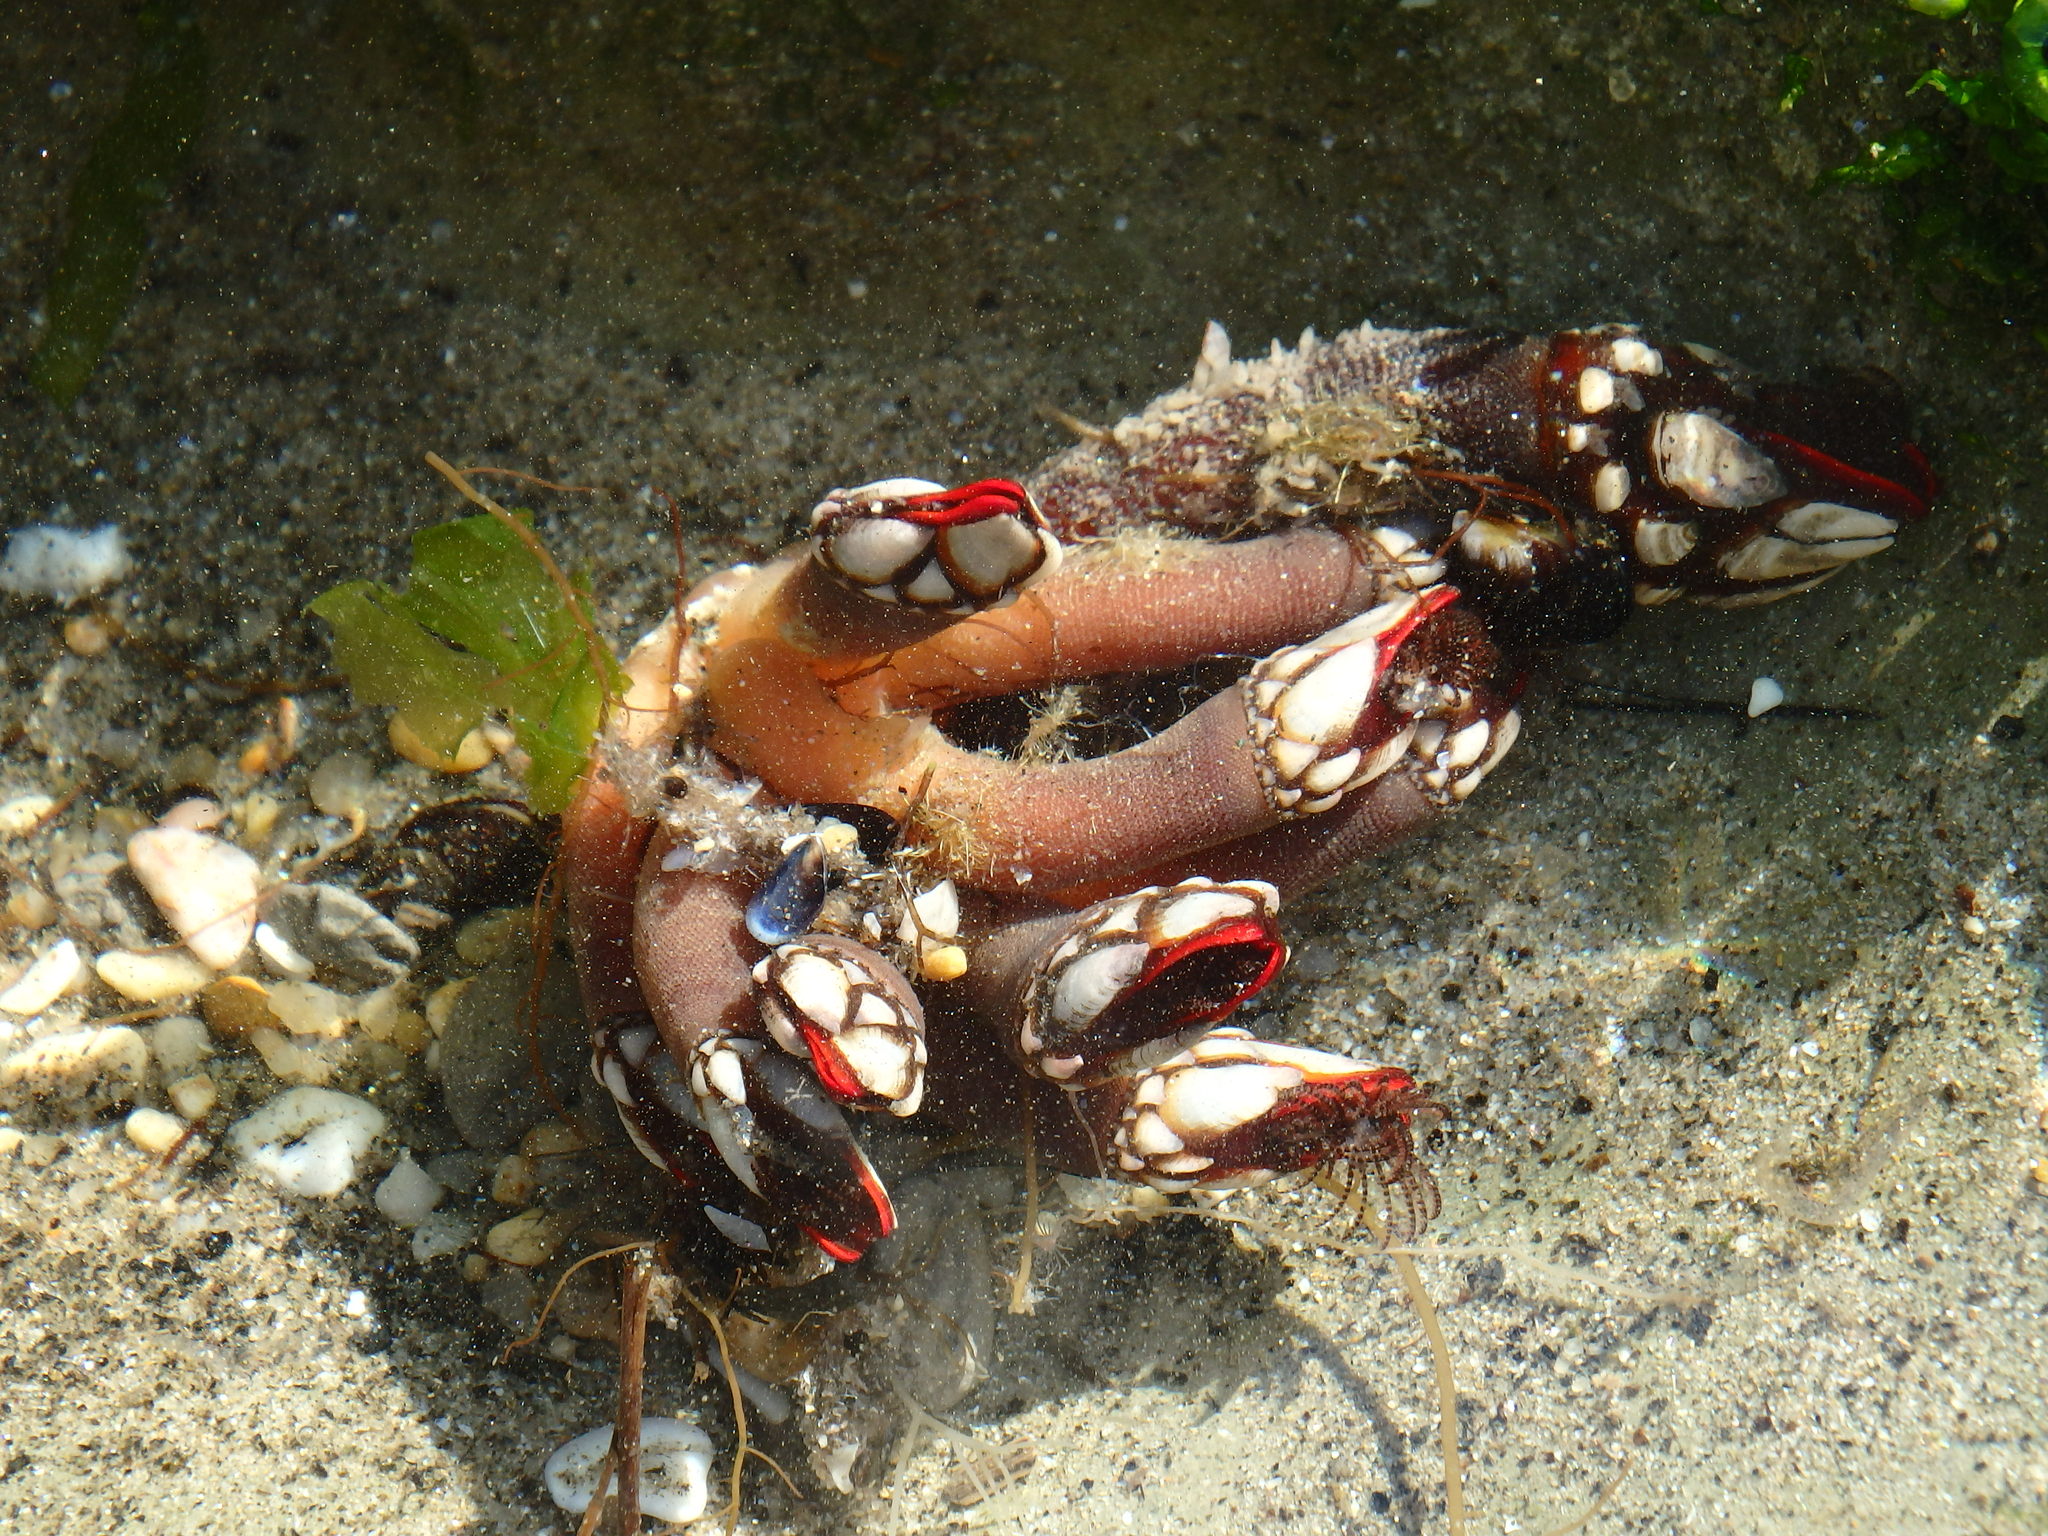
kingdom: Animalia
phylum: Arthropoda
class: Maxillopoda
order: Pedunculata
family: Pollicipedidae
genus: Pollicipes
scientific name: Pollicipes pollicipes
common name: Gooseneck barnacle
